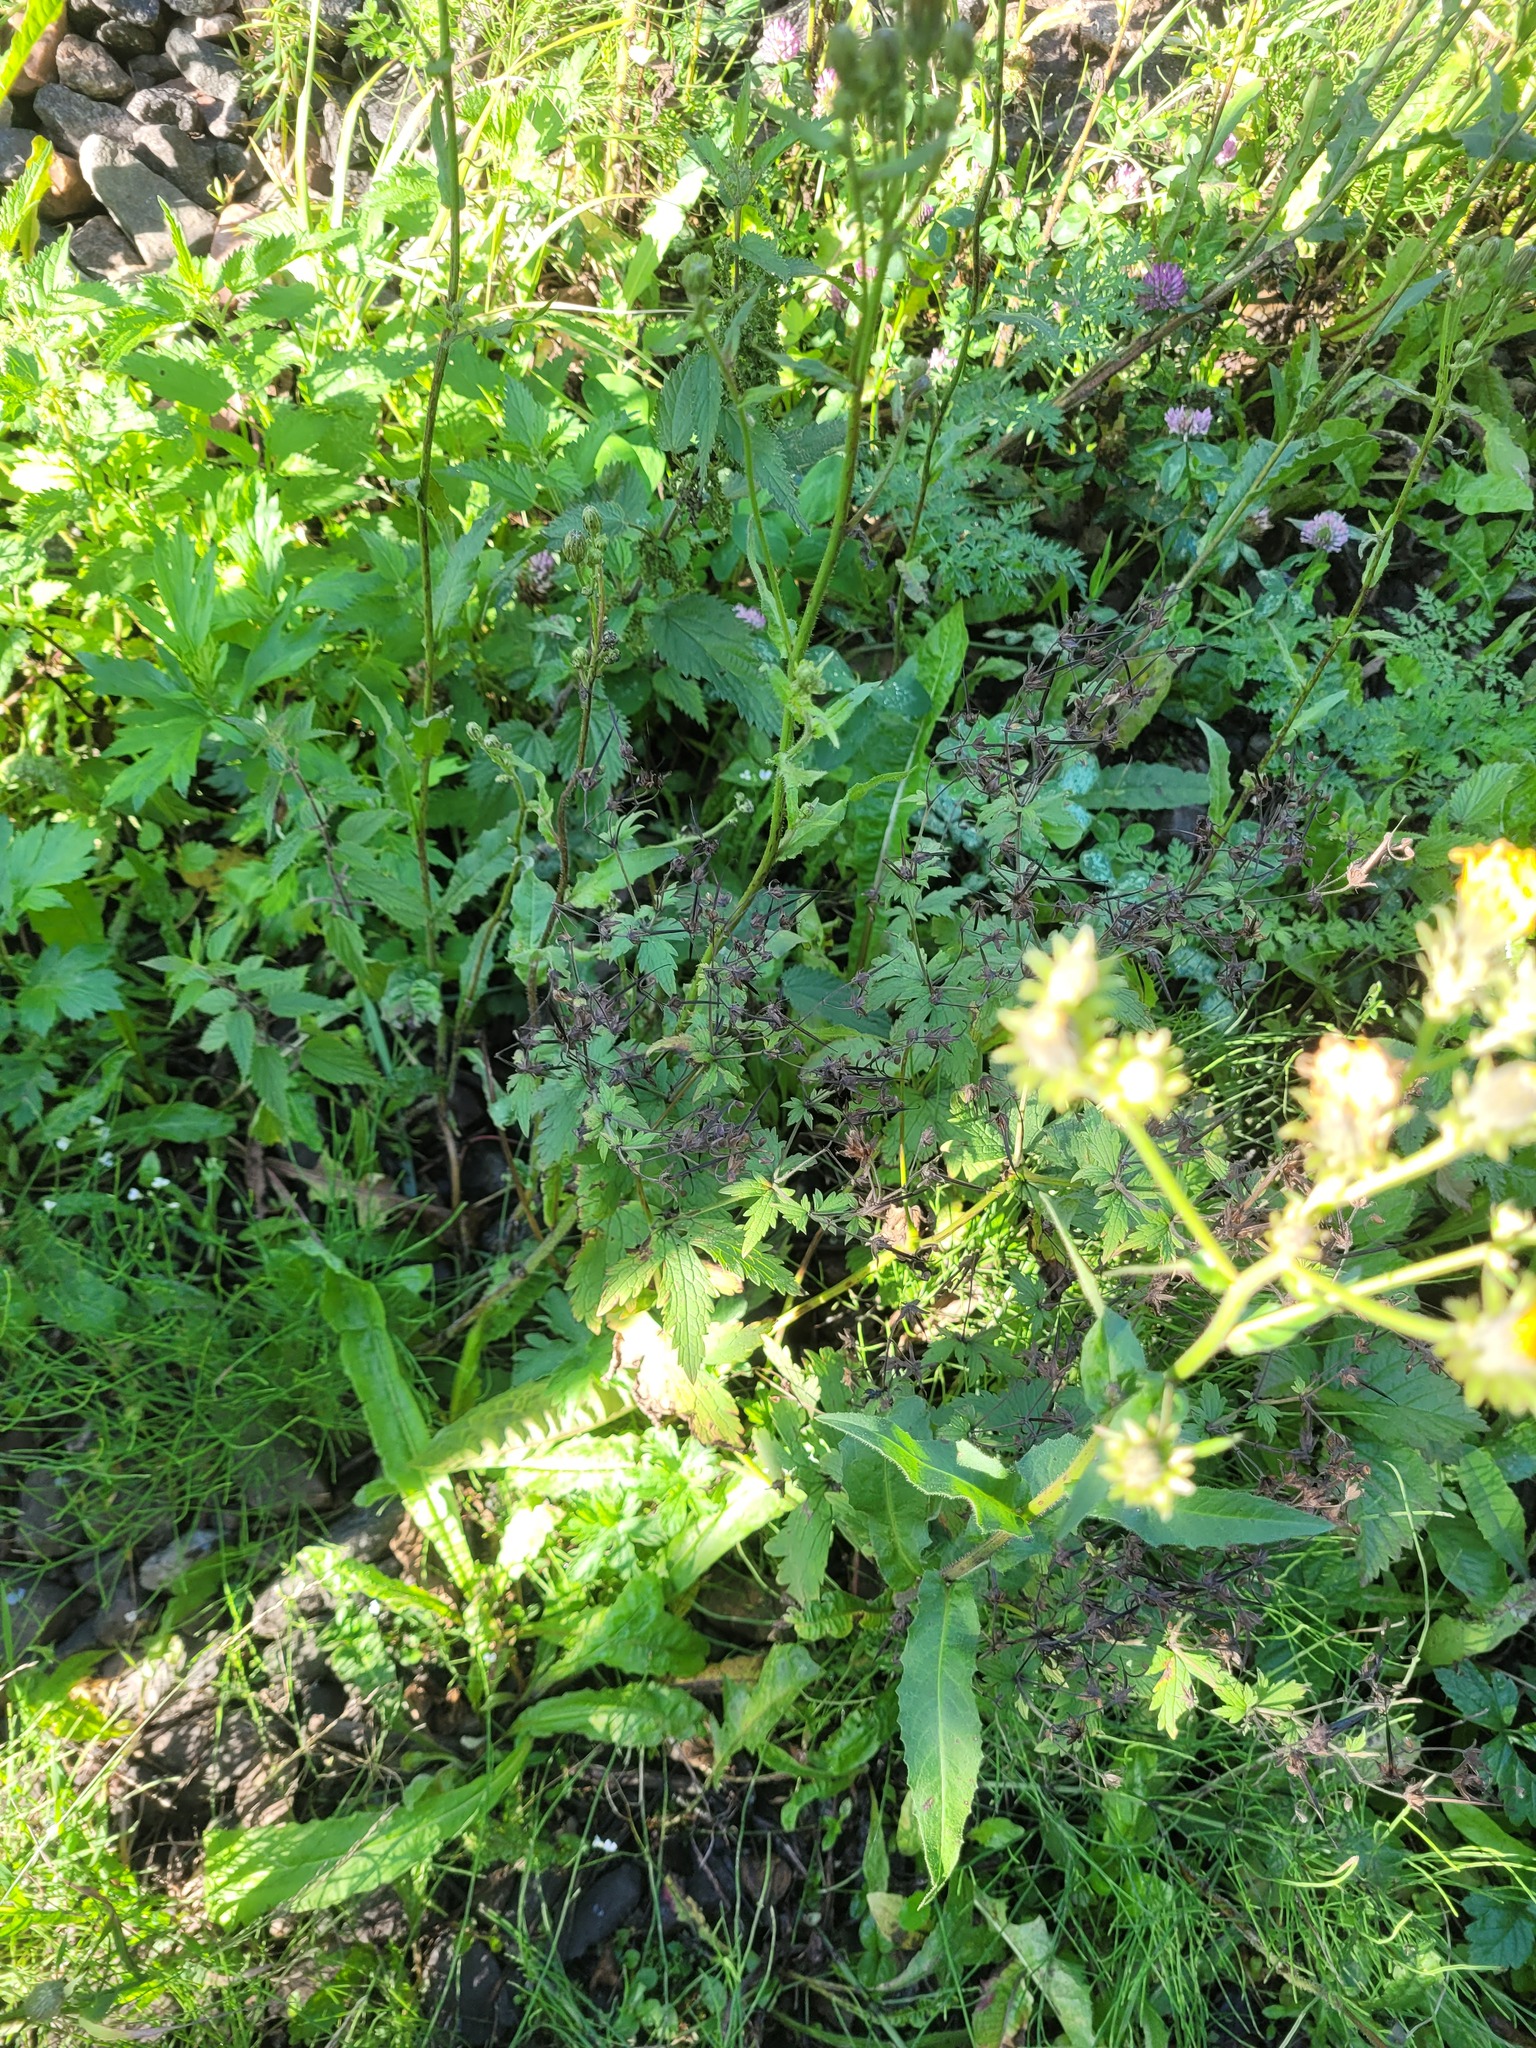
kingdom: Plantae
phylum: Tracheophyta
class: Magnoliopsida
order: Geraniales
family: Geraniaceae
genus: Geranium
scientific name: Geranium sylvaticum
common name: Wood crane's-bill
